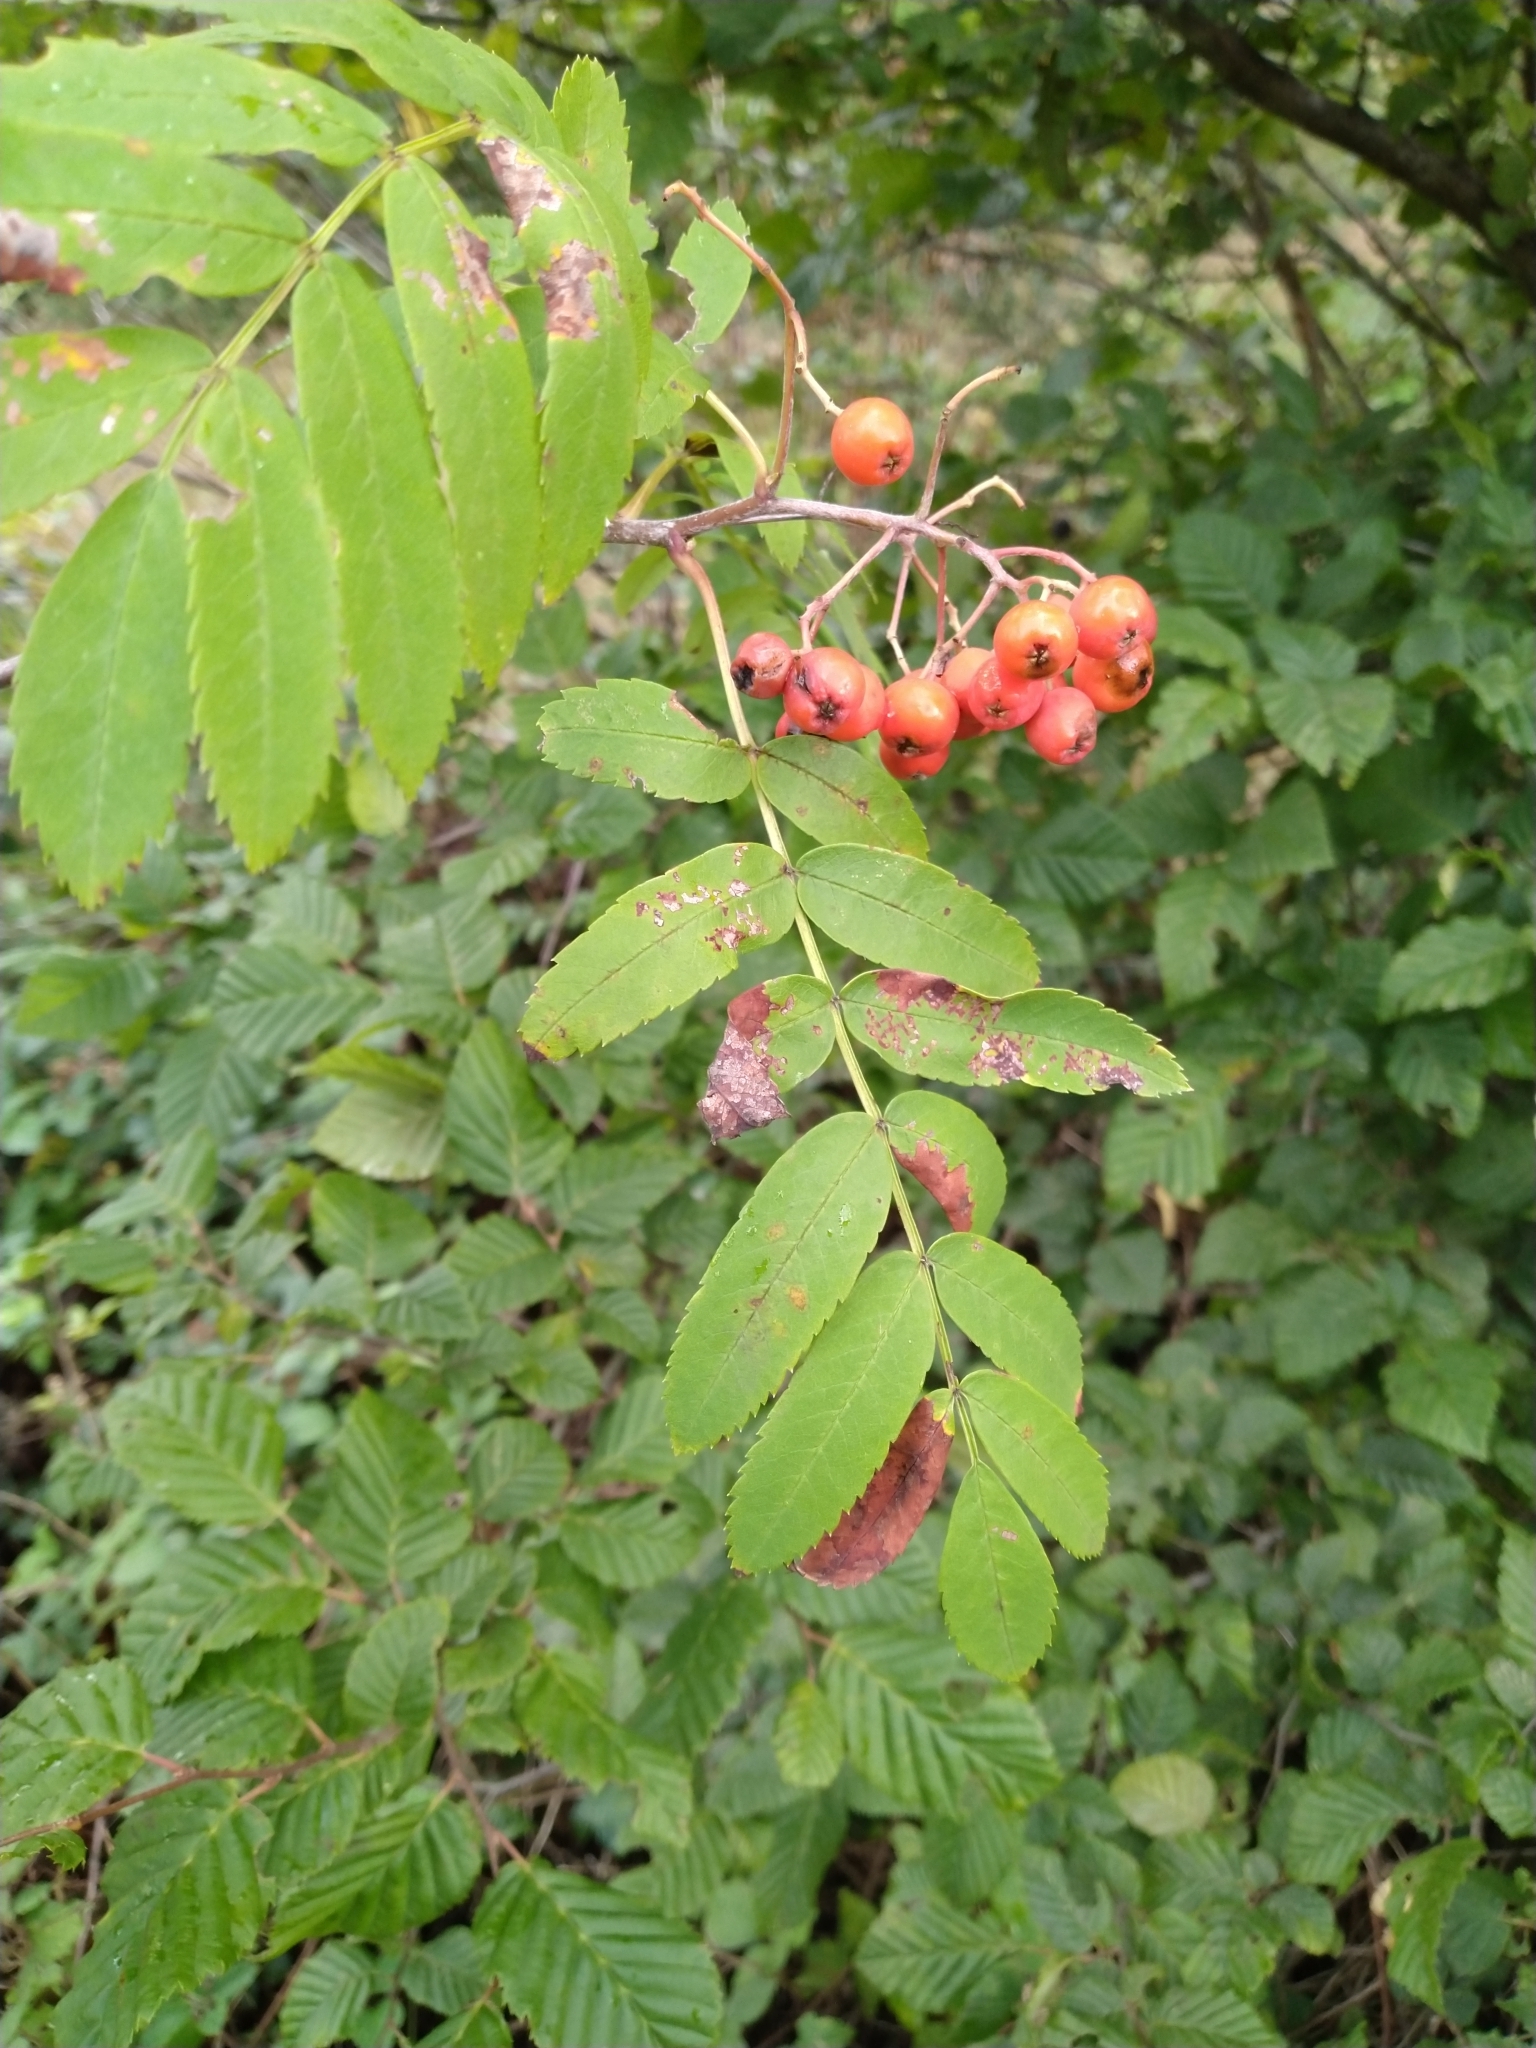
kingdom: Plantae
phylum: Tracheophyta
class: Magnoliopsida
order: Rosales
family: Rosaceae
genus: Sorbus
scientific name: Sorbus aucuparia
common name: Rowan
